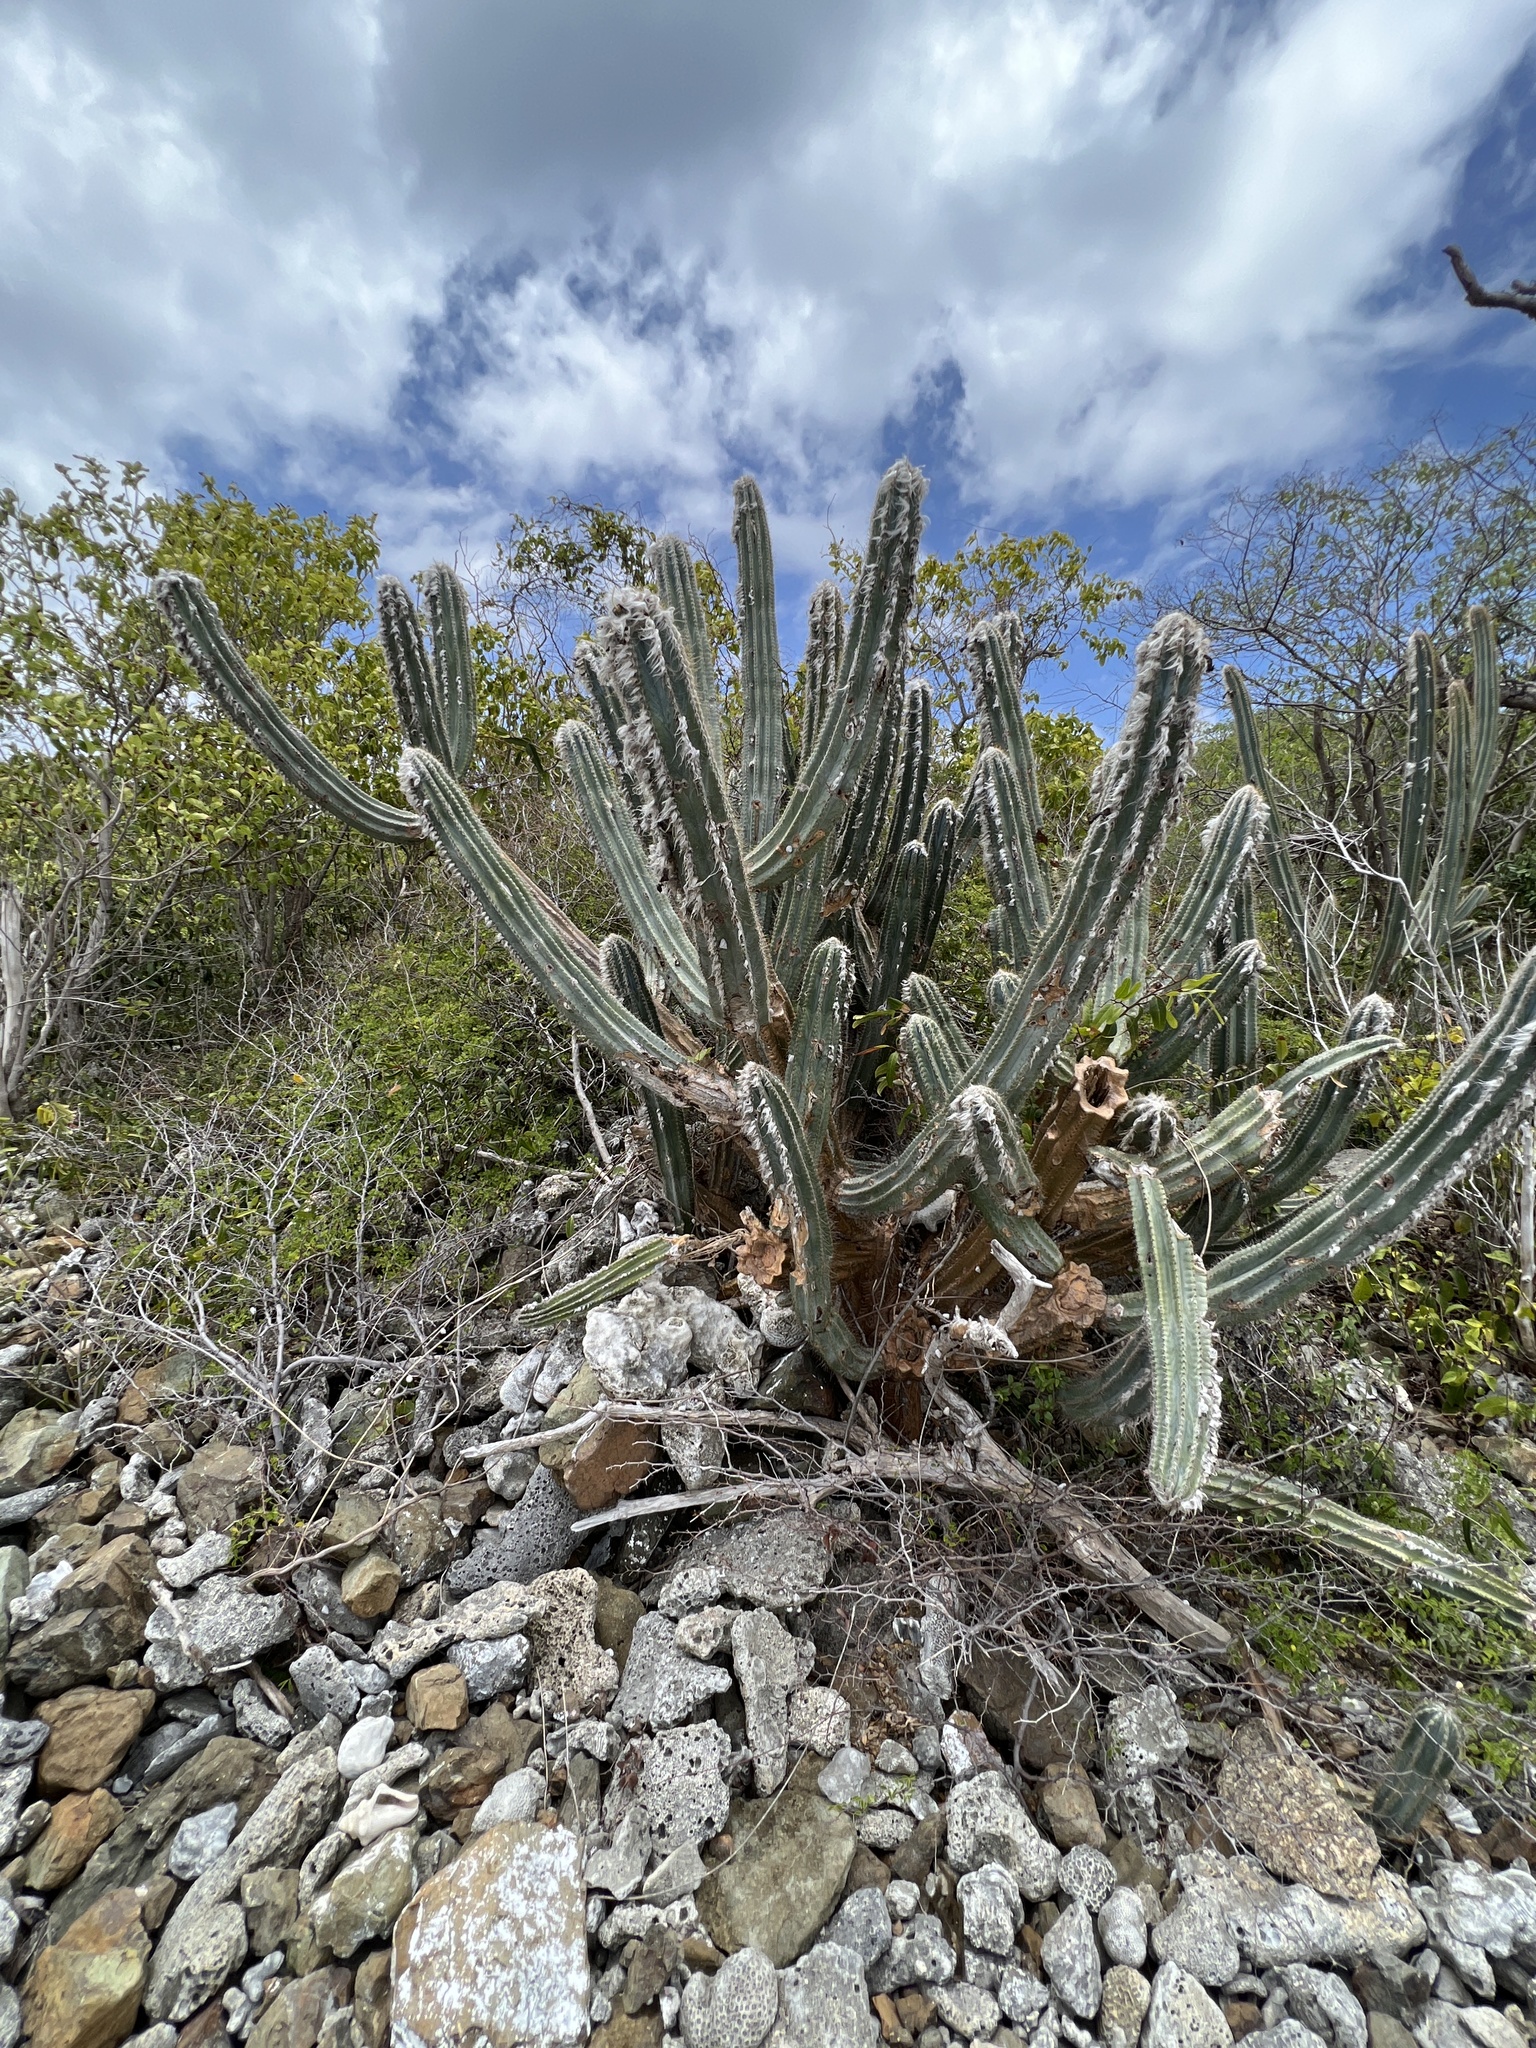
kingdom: Plantae
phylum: Tracheophyta
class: Magnoliopsida
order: Caryophyllales
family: Cactaceae
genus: Pilosocereus
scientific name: Pilosocereus armatus
